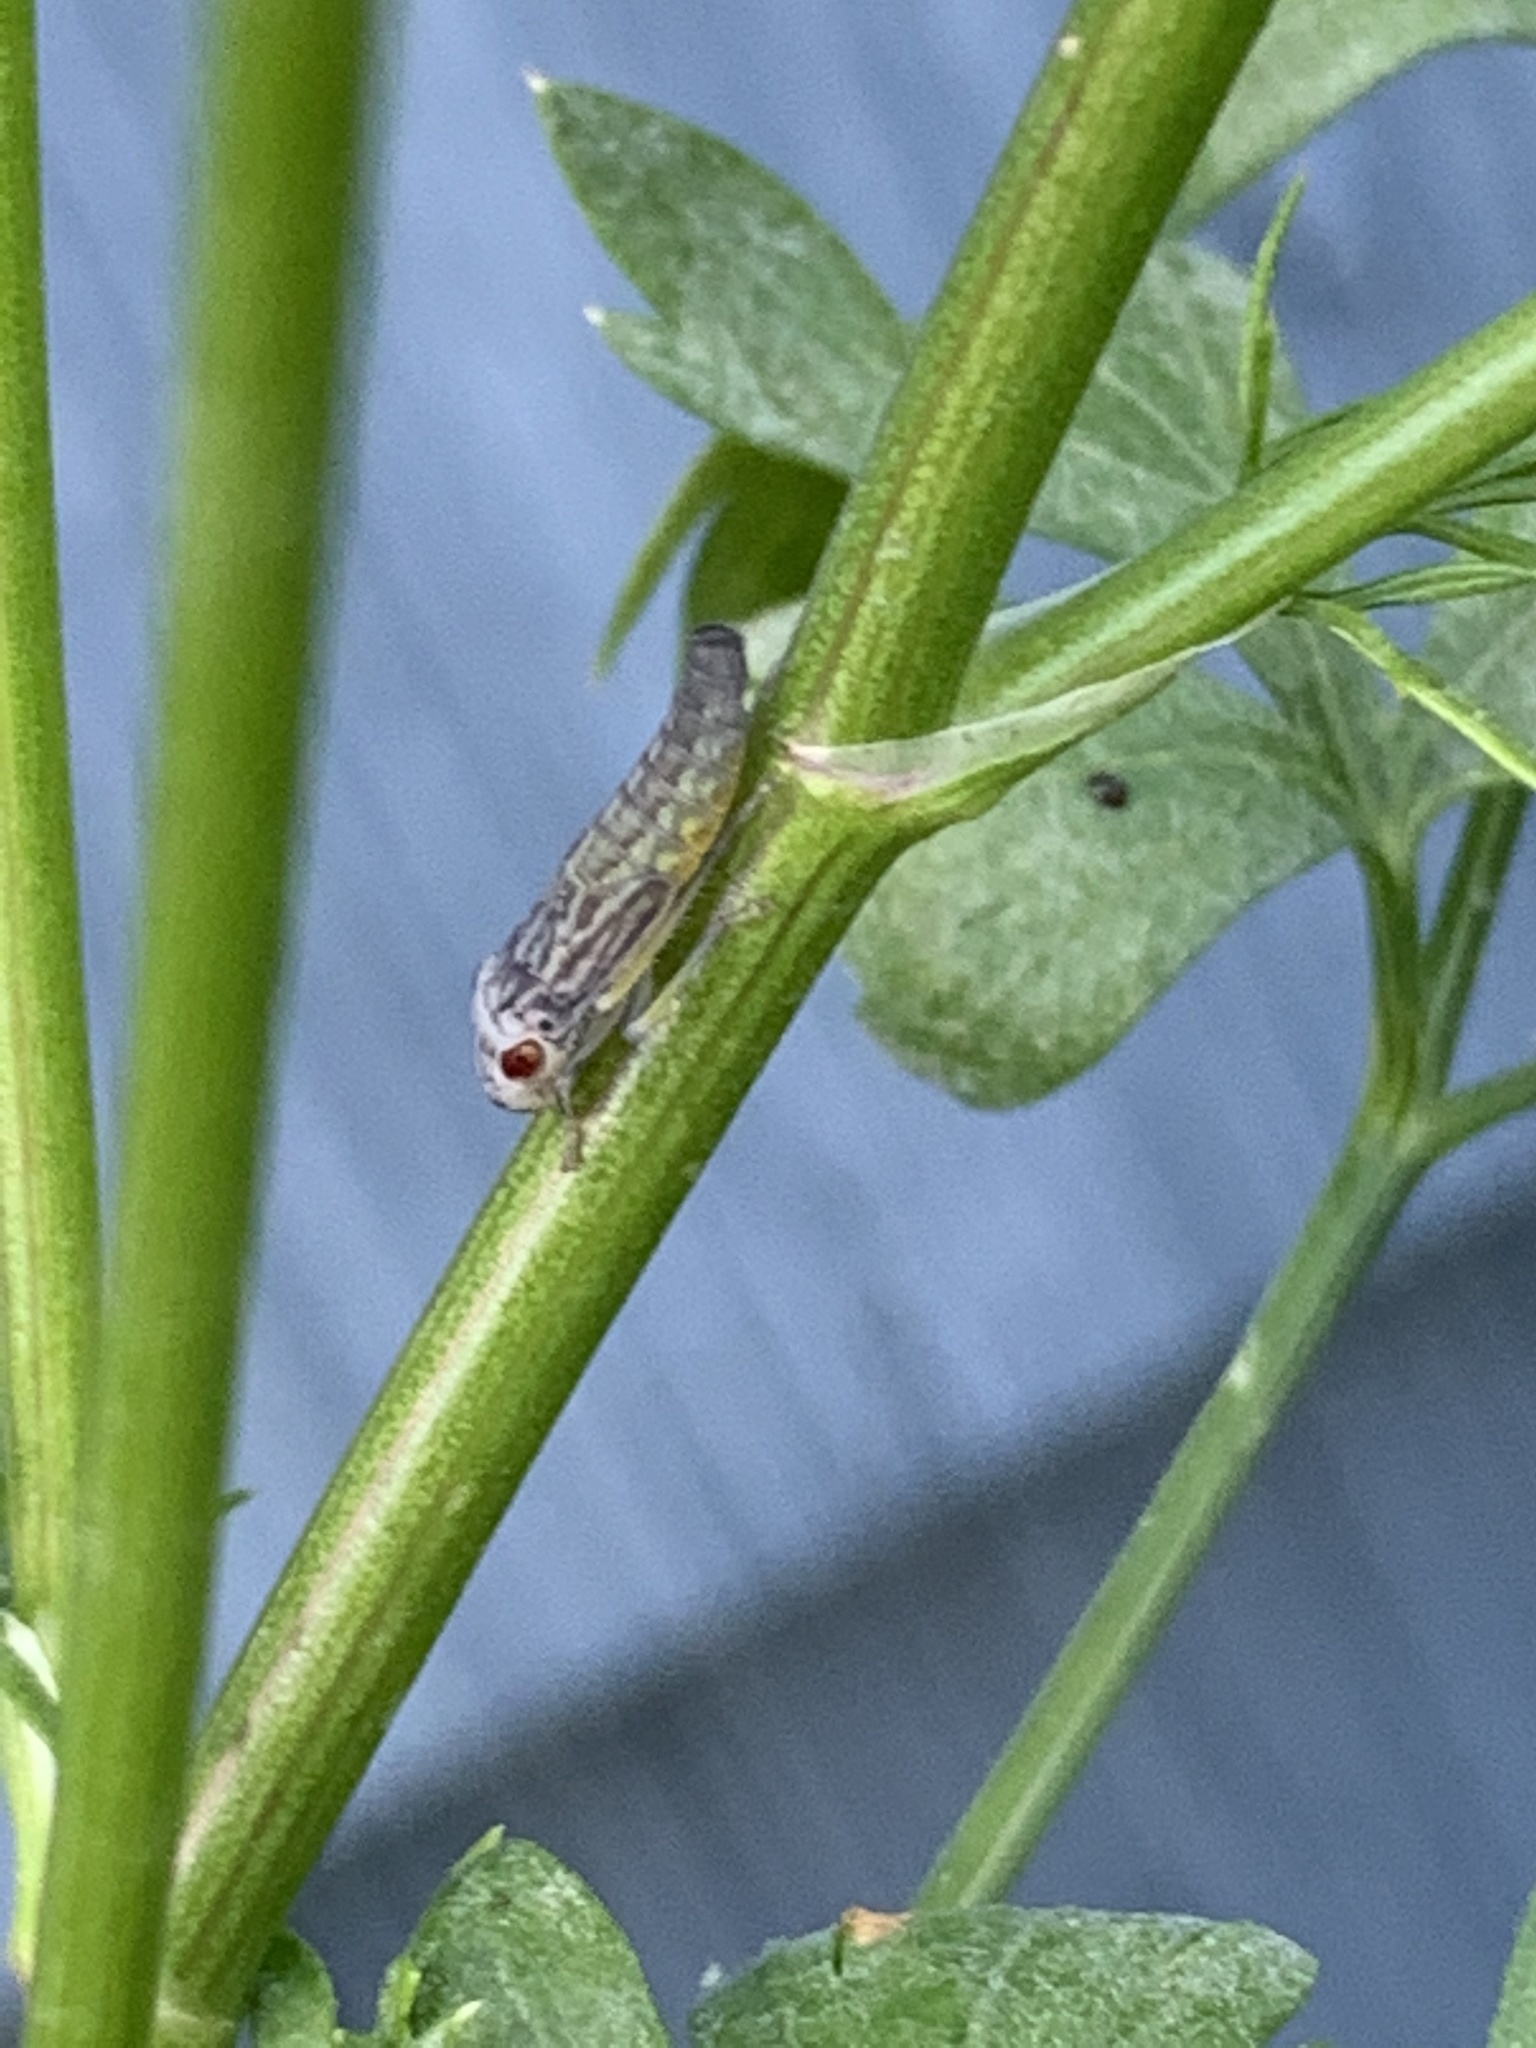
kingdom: Animalia
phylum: Arthropoda
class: Insecta
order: Hemiptera
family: Cicadellidae
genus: Oncometopia
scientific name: Oncometopia orbona
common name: Broad-headed sharpshooter
